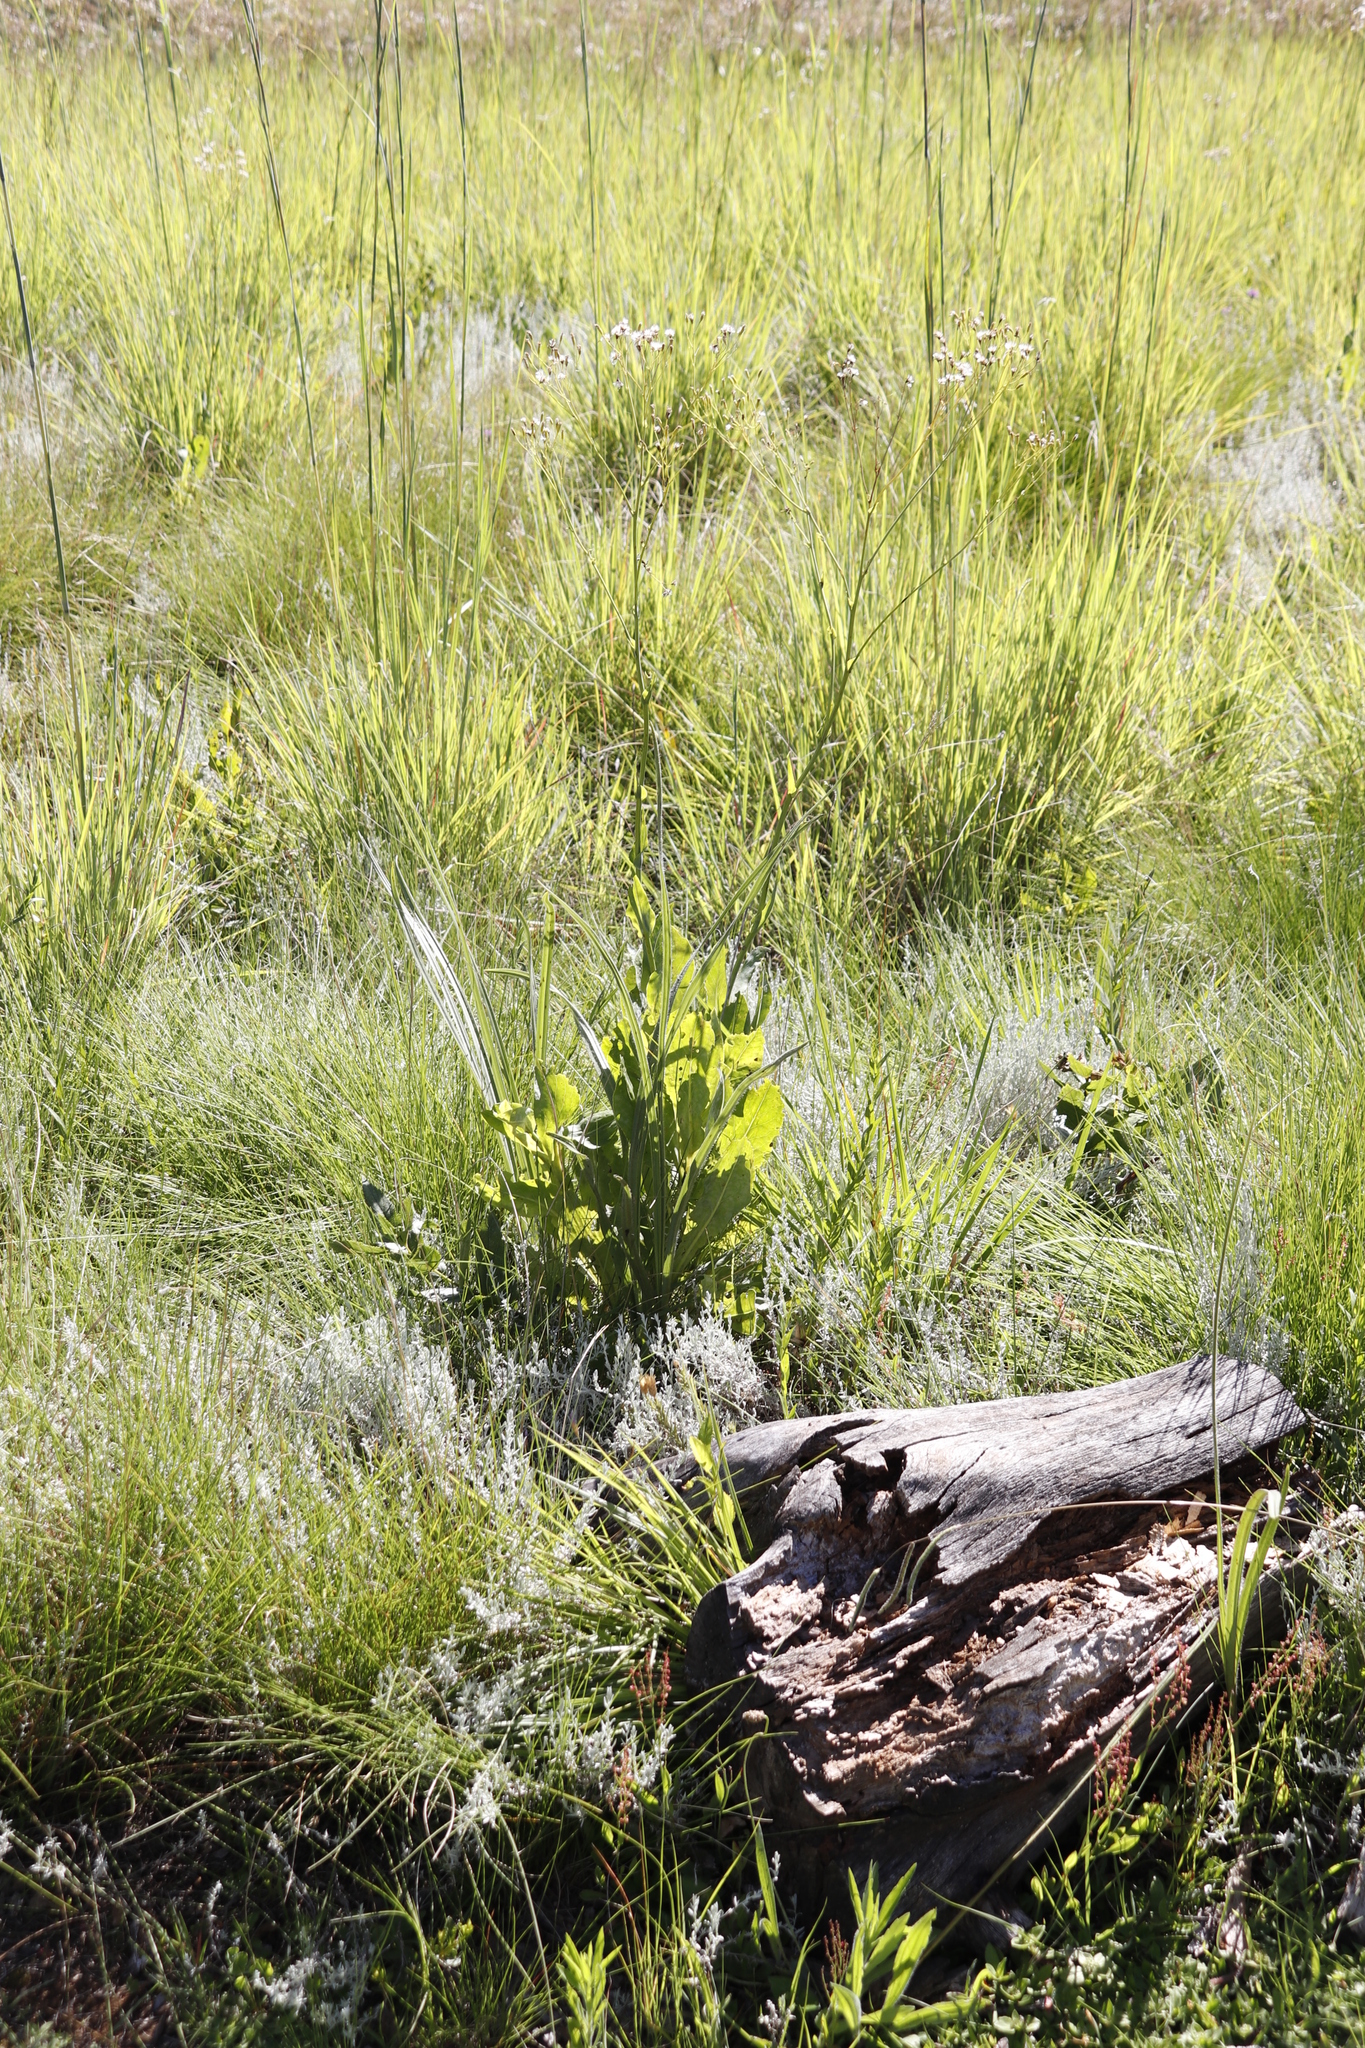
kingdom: Plantae
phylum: Tracheophyta
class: Magnoliopsida
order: Asterales
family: Asteraceae
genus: Senecio
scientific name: Senecio isatideus
